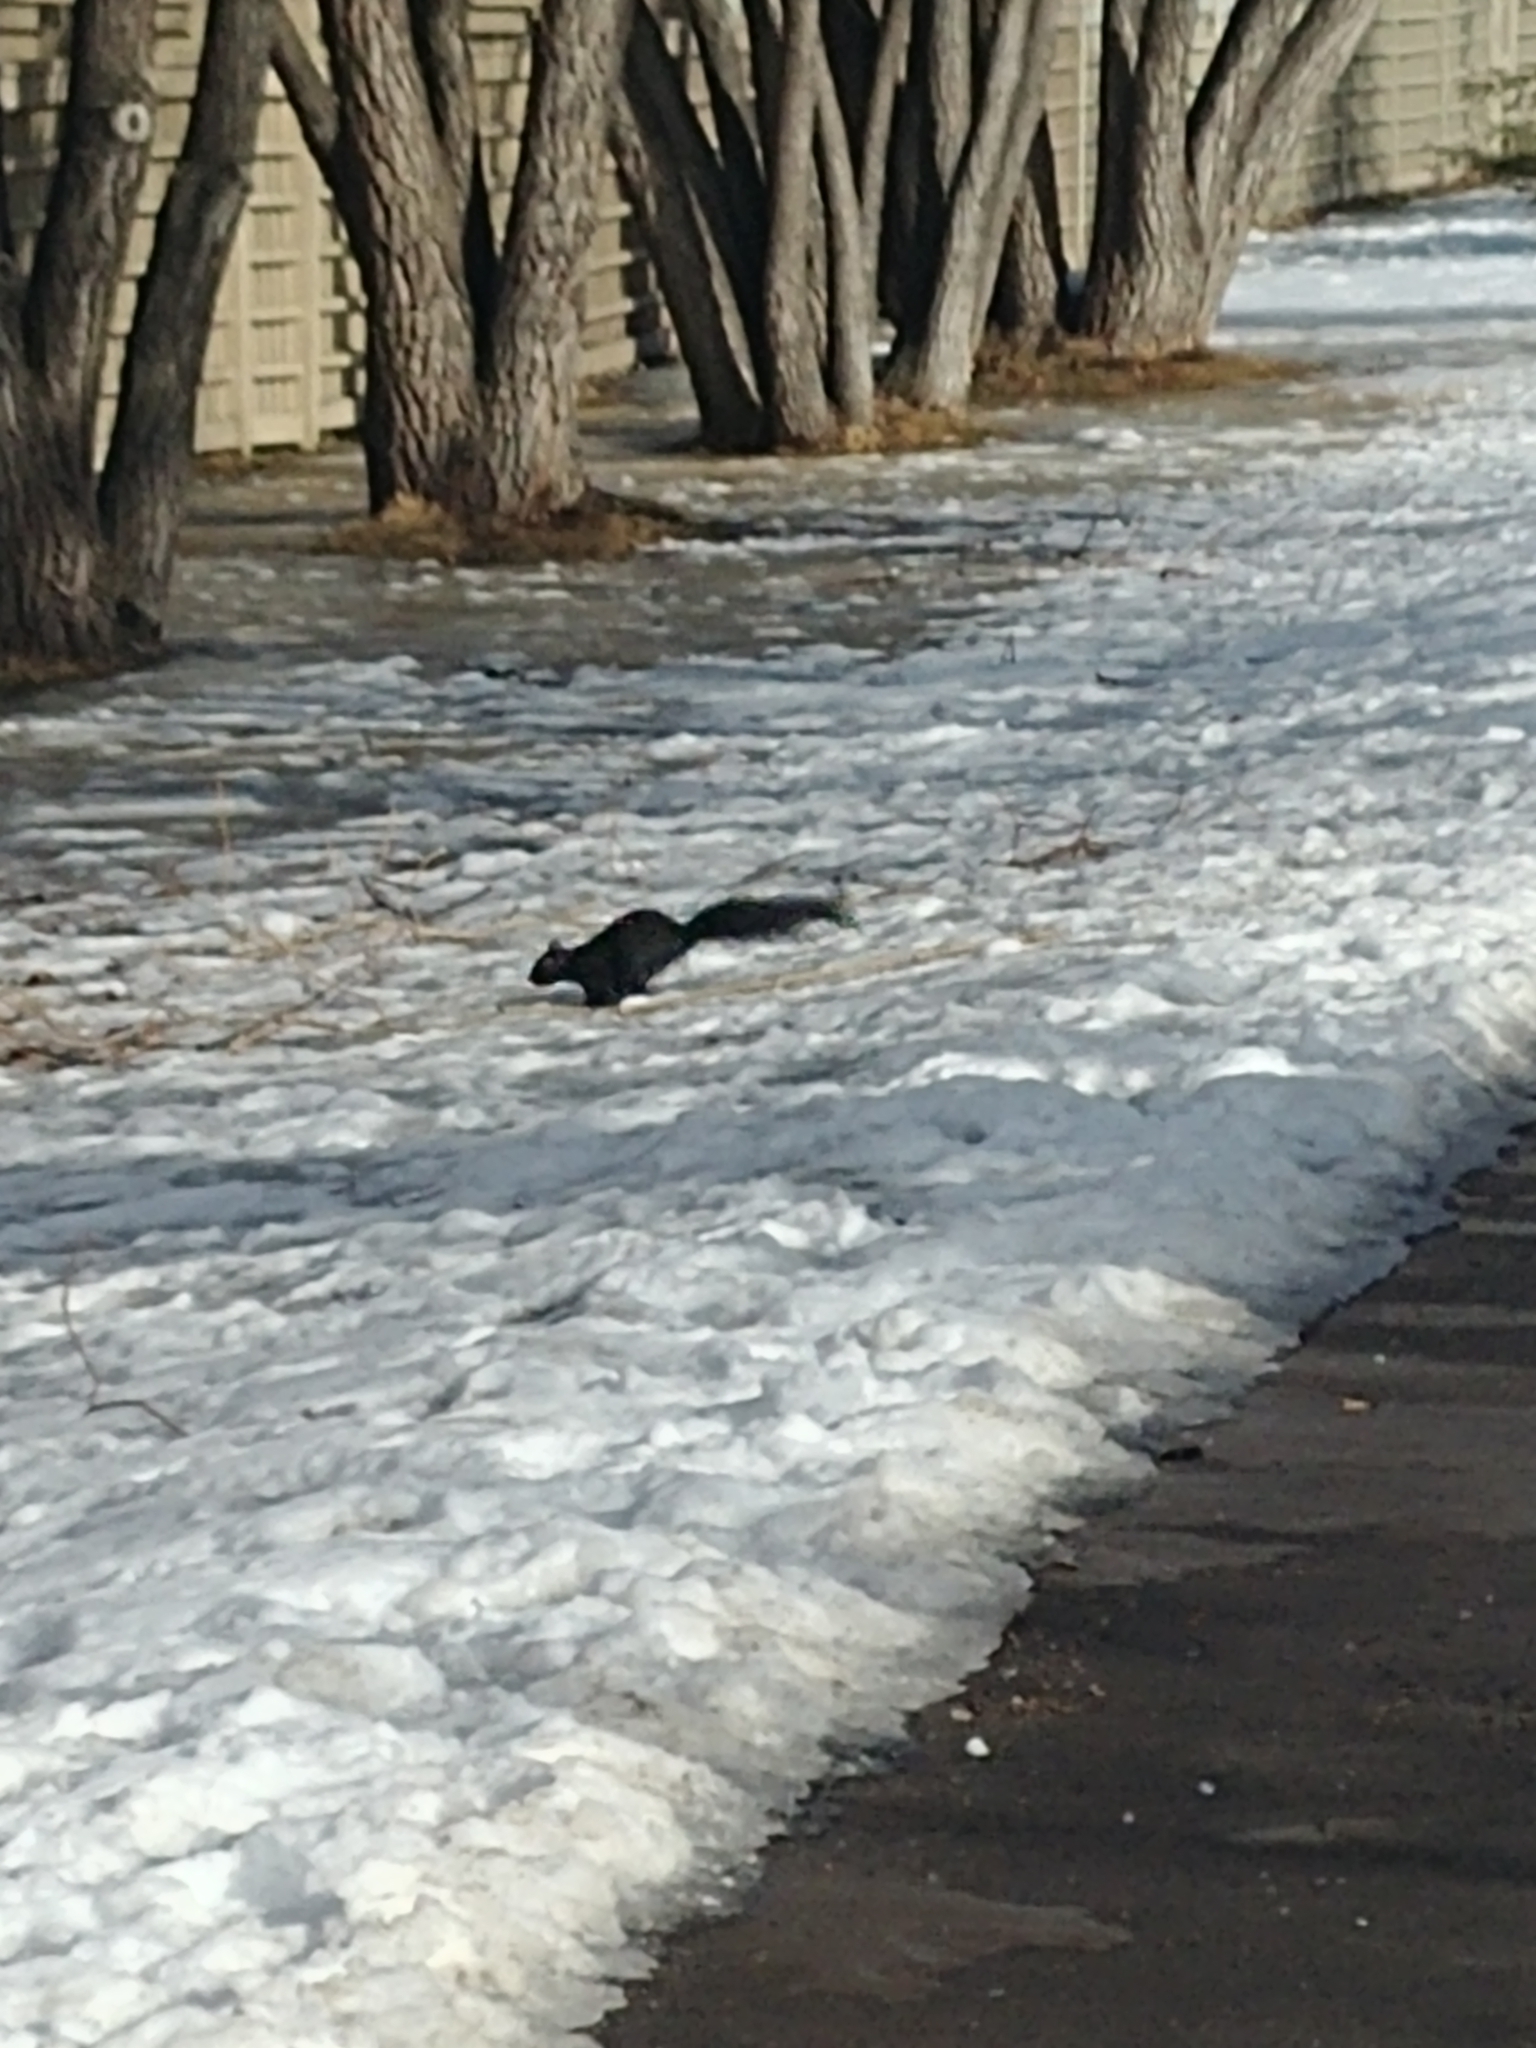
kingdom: Animalia
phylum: Chordata
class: Mammalia
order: Rodentia
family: Sciuridae
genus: Sciurus
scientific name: Sciurus carolinensis
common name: Eastern gray squirrel
